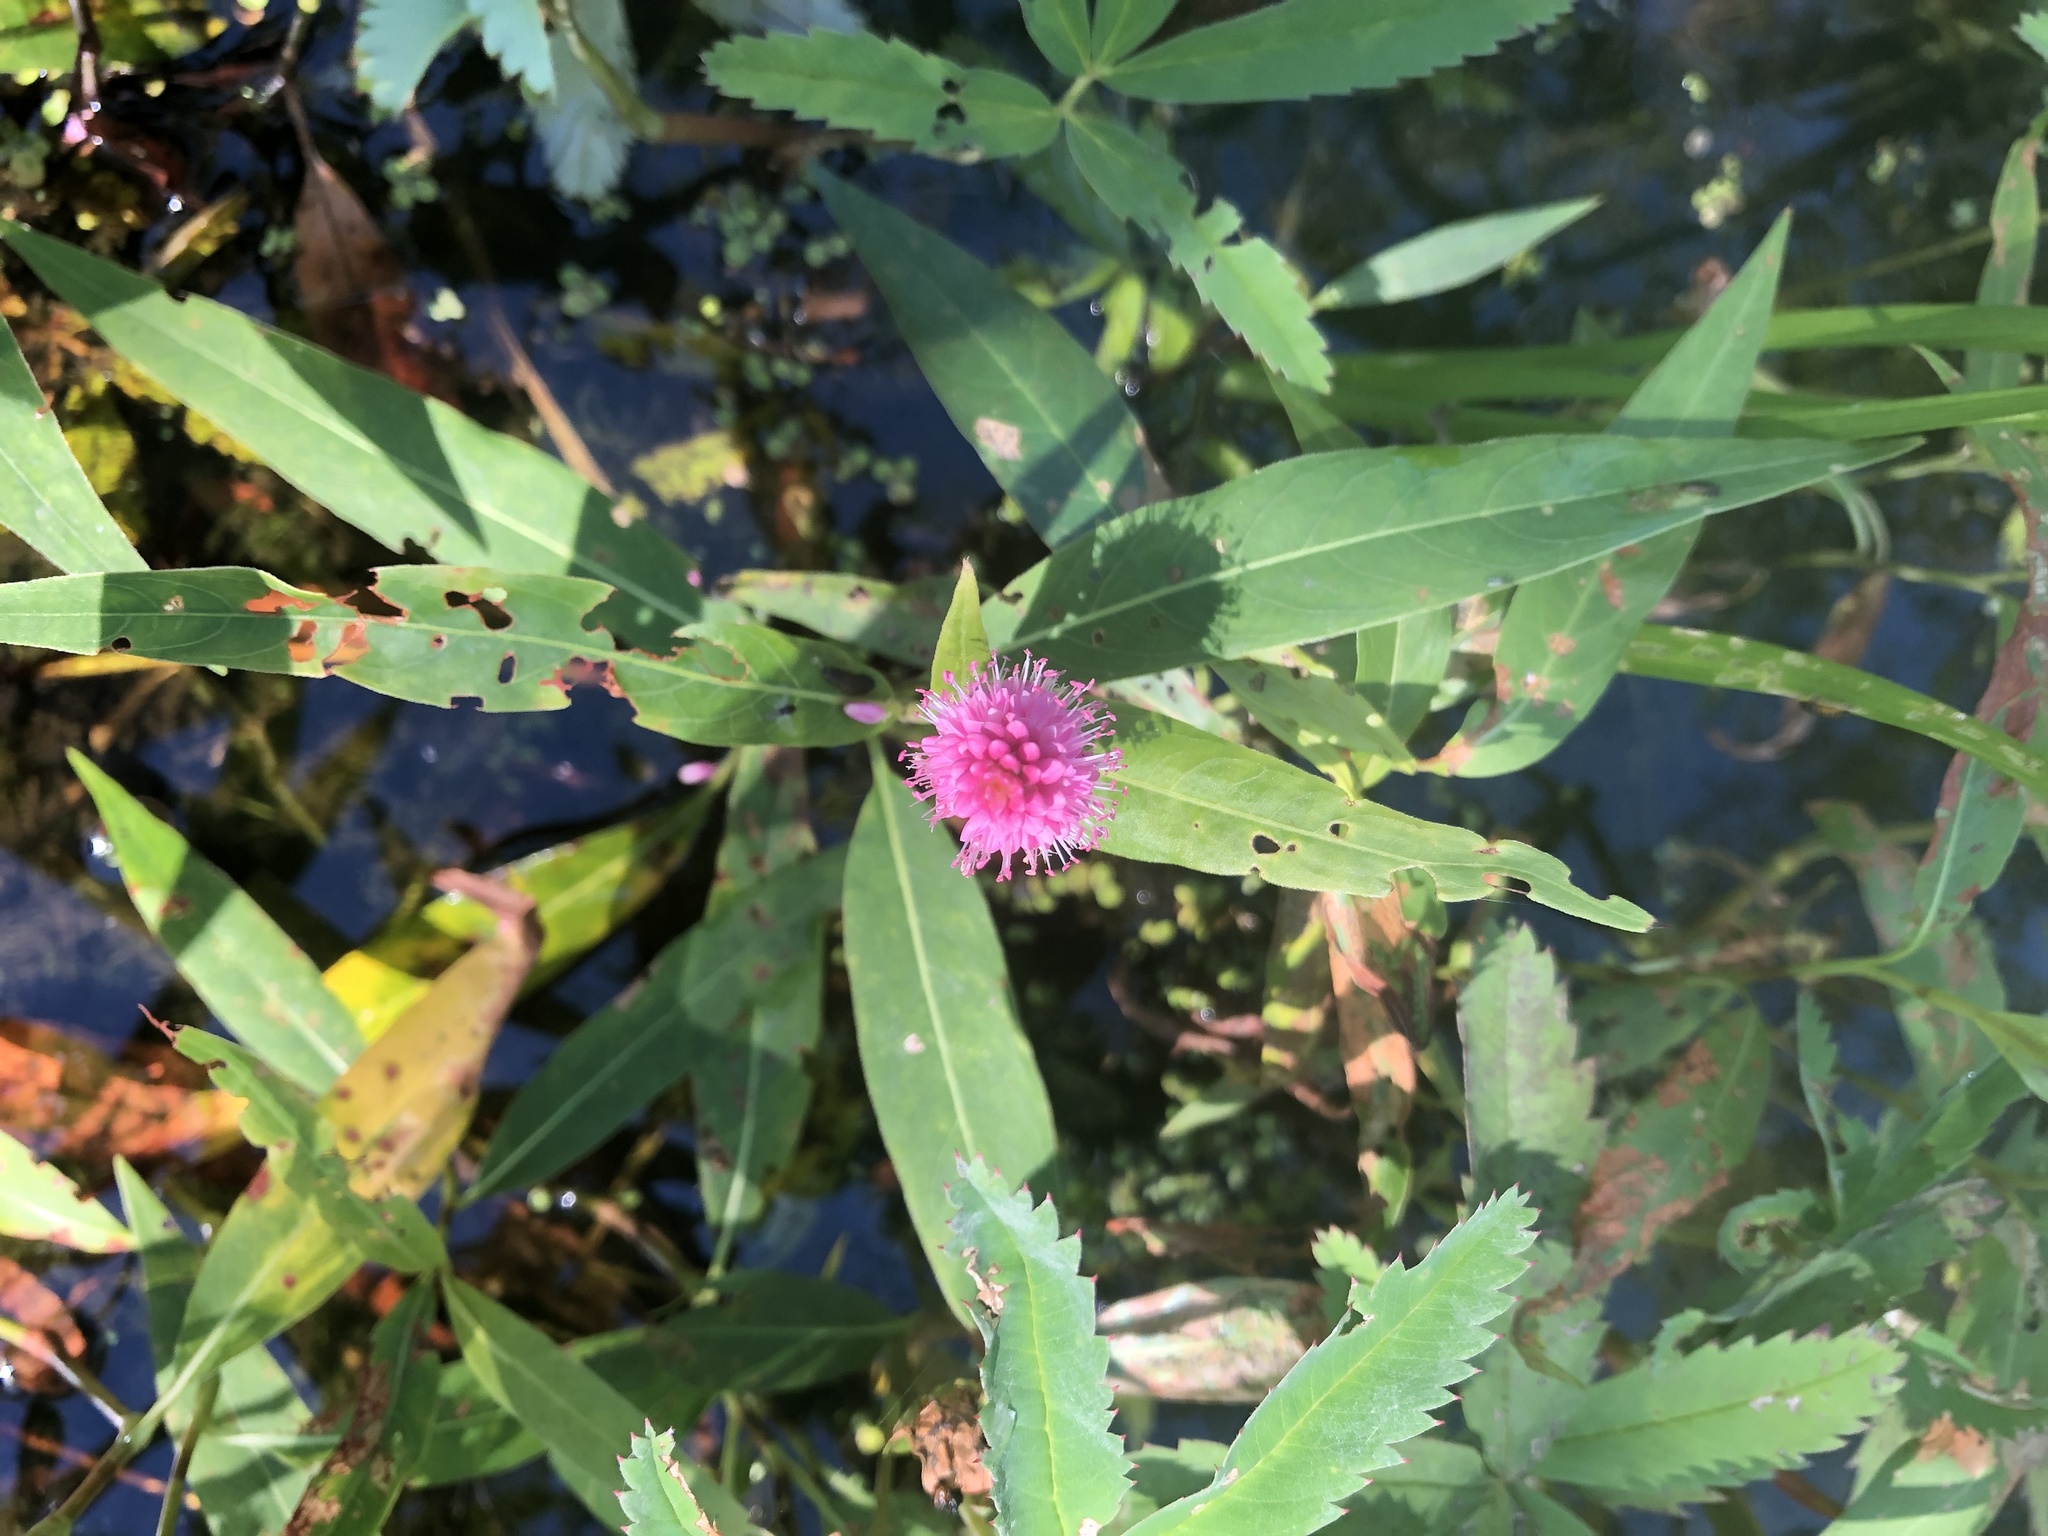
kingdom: Plantae
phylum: Tracheophyta
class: Magnoliopsida
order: Caryophyllales
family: Polygonaceae
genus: Persicaria
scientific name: Persicaria amphibia
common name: Amphibious bistort
